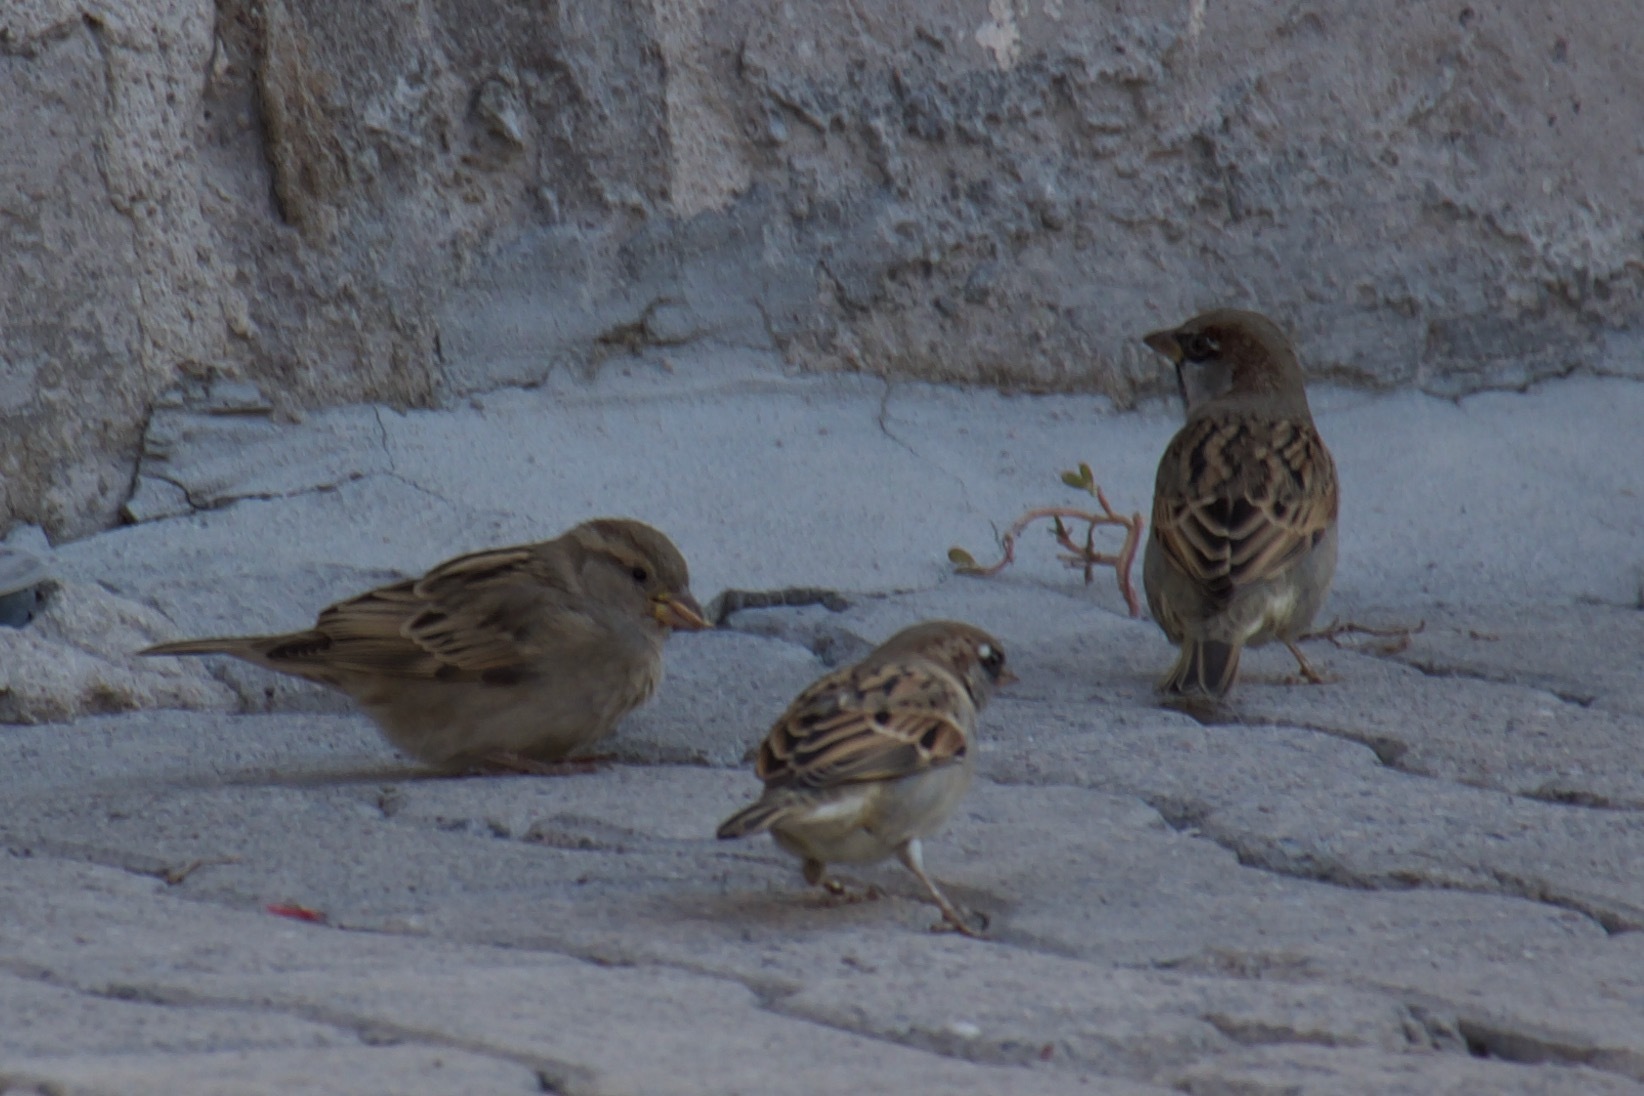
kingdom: Animalia
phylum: Chordata
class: Aves
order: Passeriformes
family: Passeridae
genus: Passer
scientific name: Passer domesticus
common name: House sparrow
